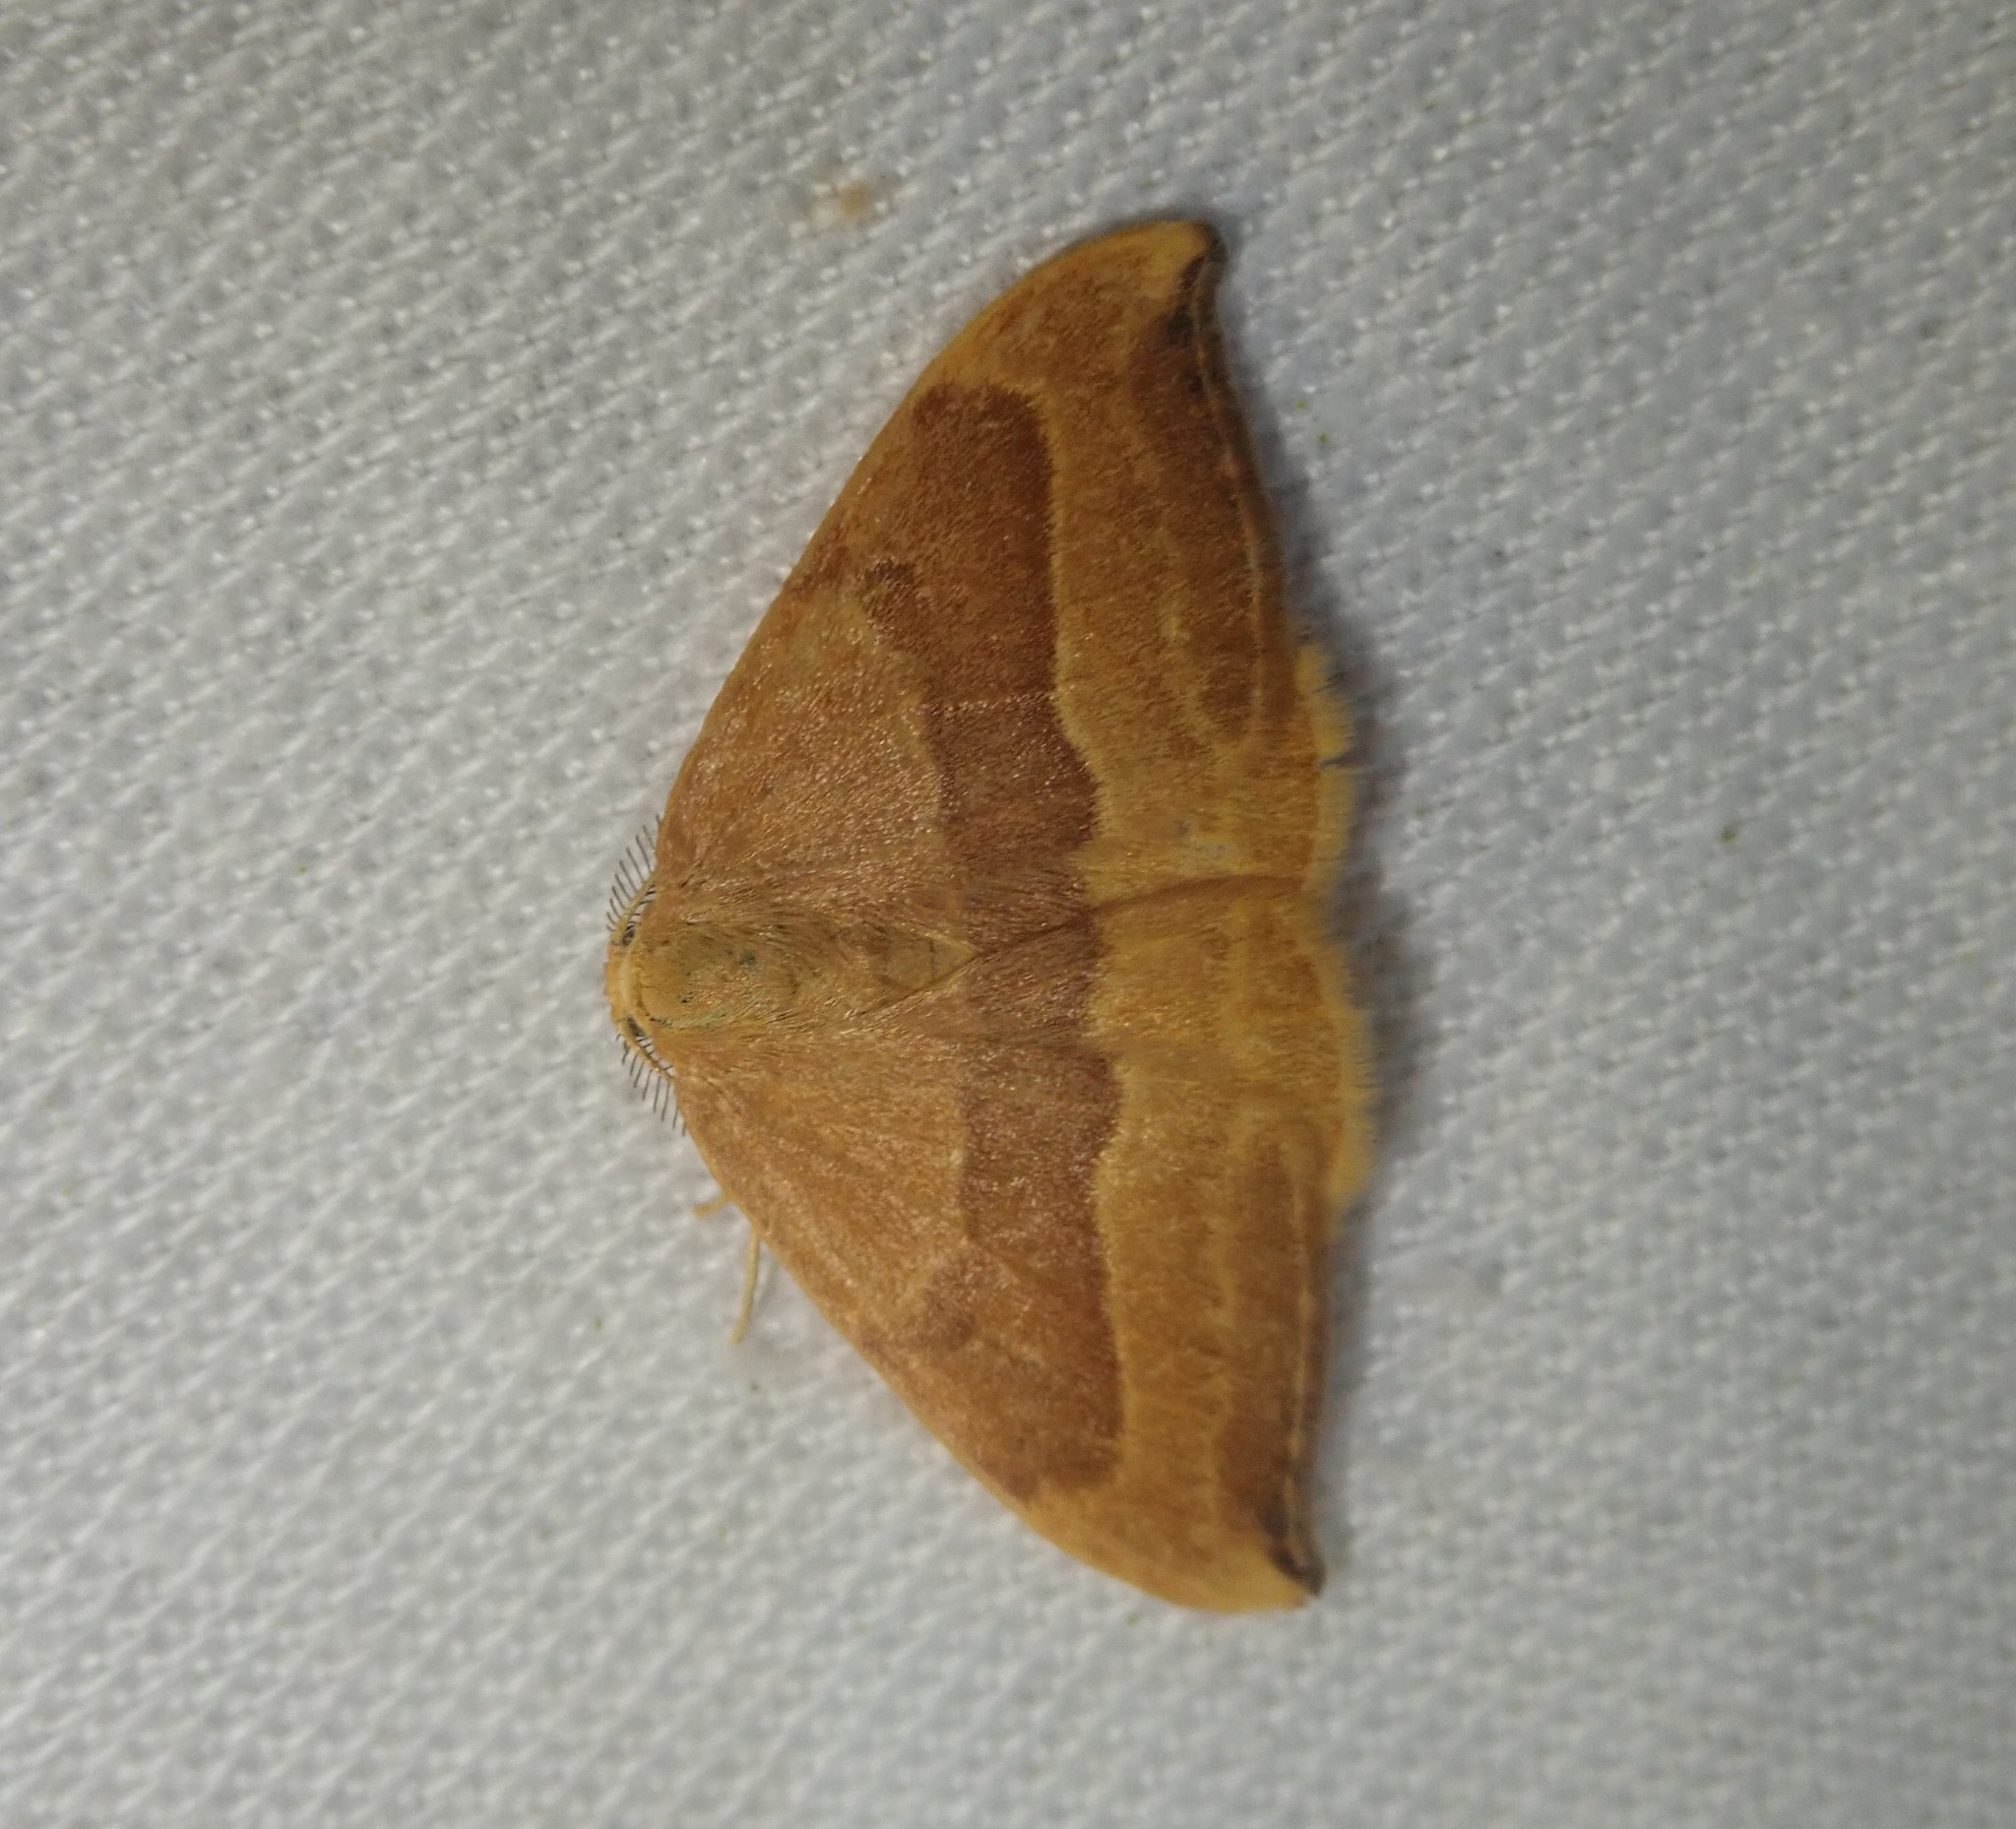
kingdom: Animalia
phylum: Arthropoda
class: Insecta
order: Lepidoptera
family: Drepanidae
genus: Watsonalla
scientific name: Watsonalla cultraria
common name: Barred hook-tip
